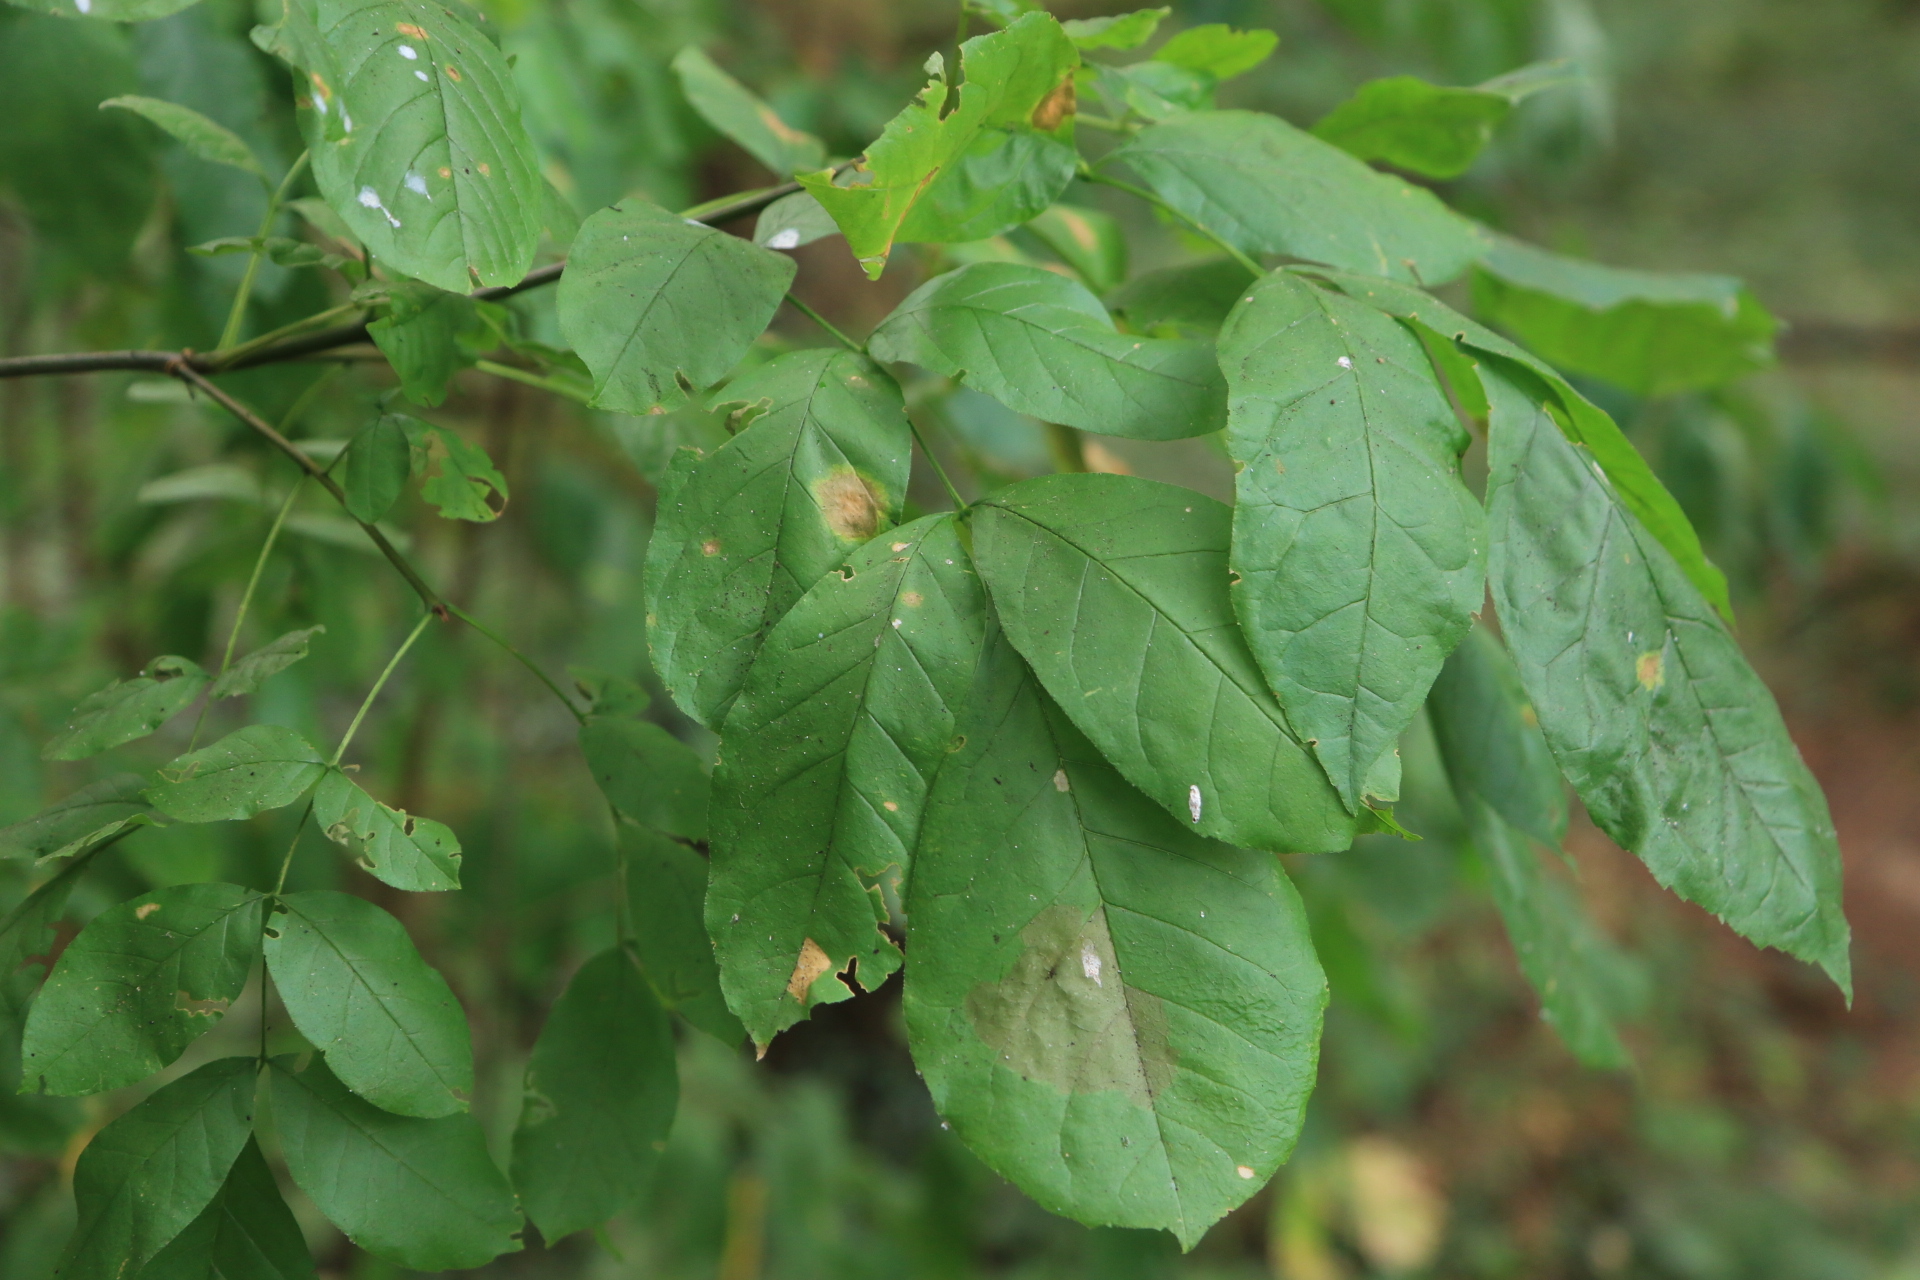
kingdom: Plantae
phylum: Tracheophyta
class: Magnoliopsida
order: Lamiales
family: Oleaceae
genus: Fraxinus
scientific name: Fraxinus latifolia
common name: Oregon ash
